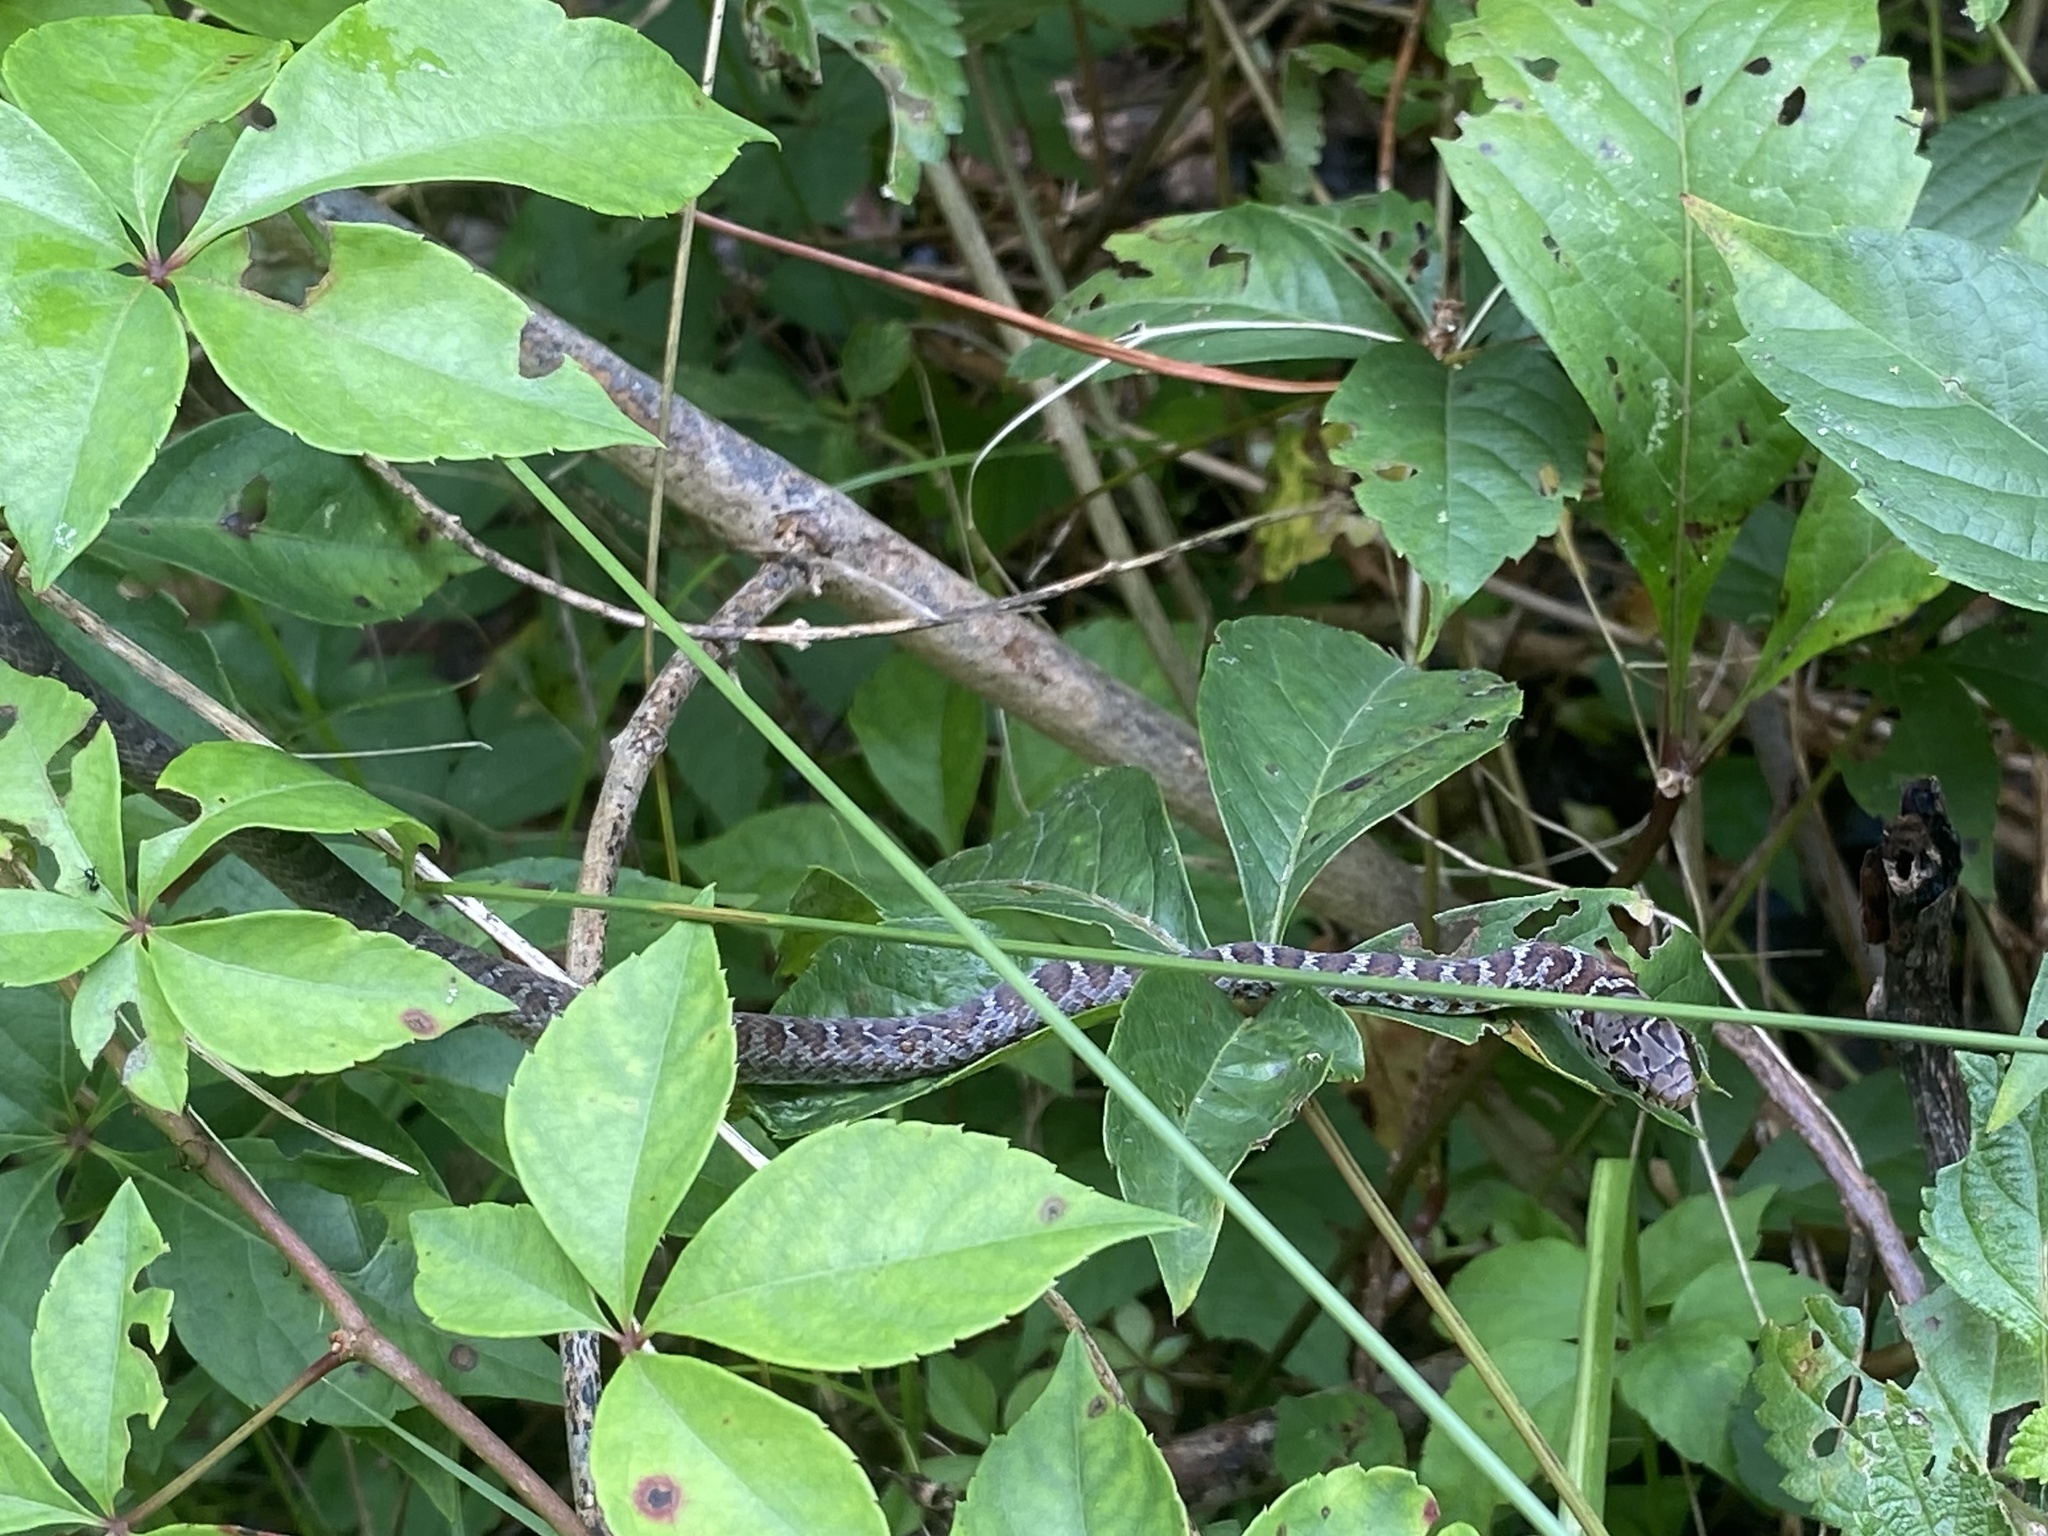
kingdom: Animalia
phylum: Chordata
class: Squamata
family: Colubridae
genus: Coluber
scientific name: Coluber constrictor
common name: Eastern racer
